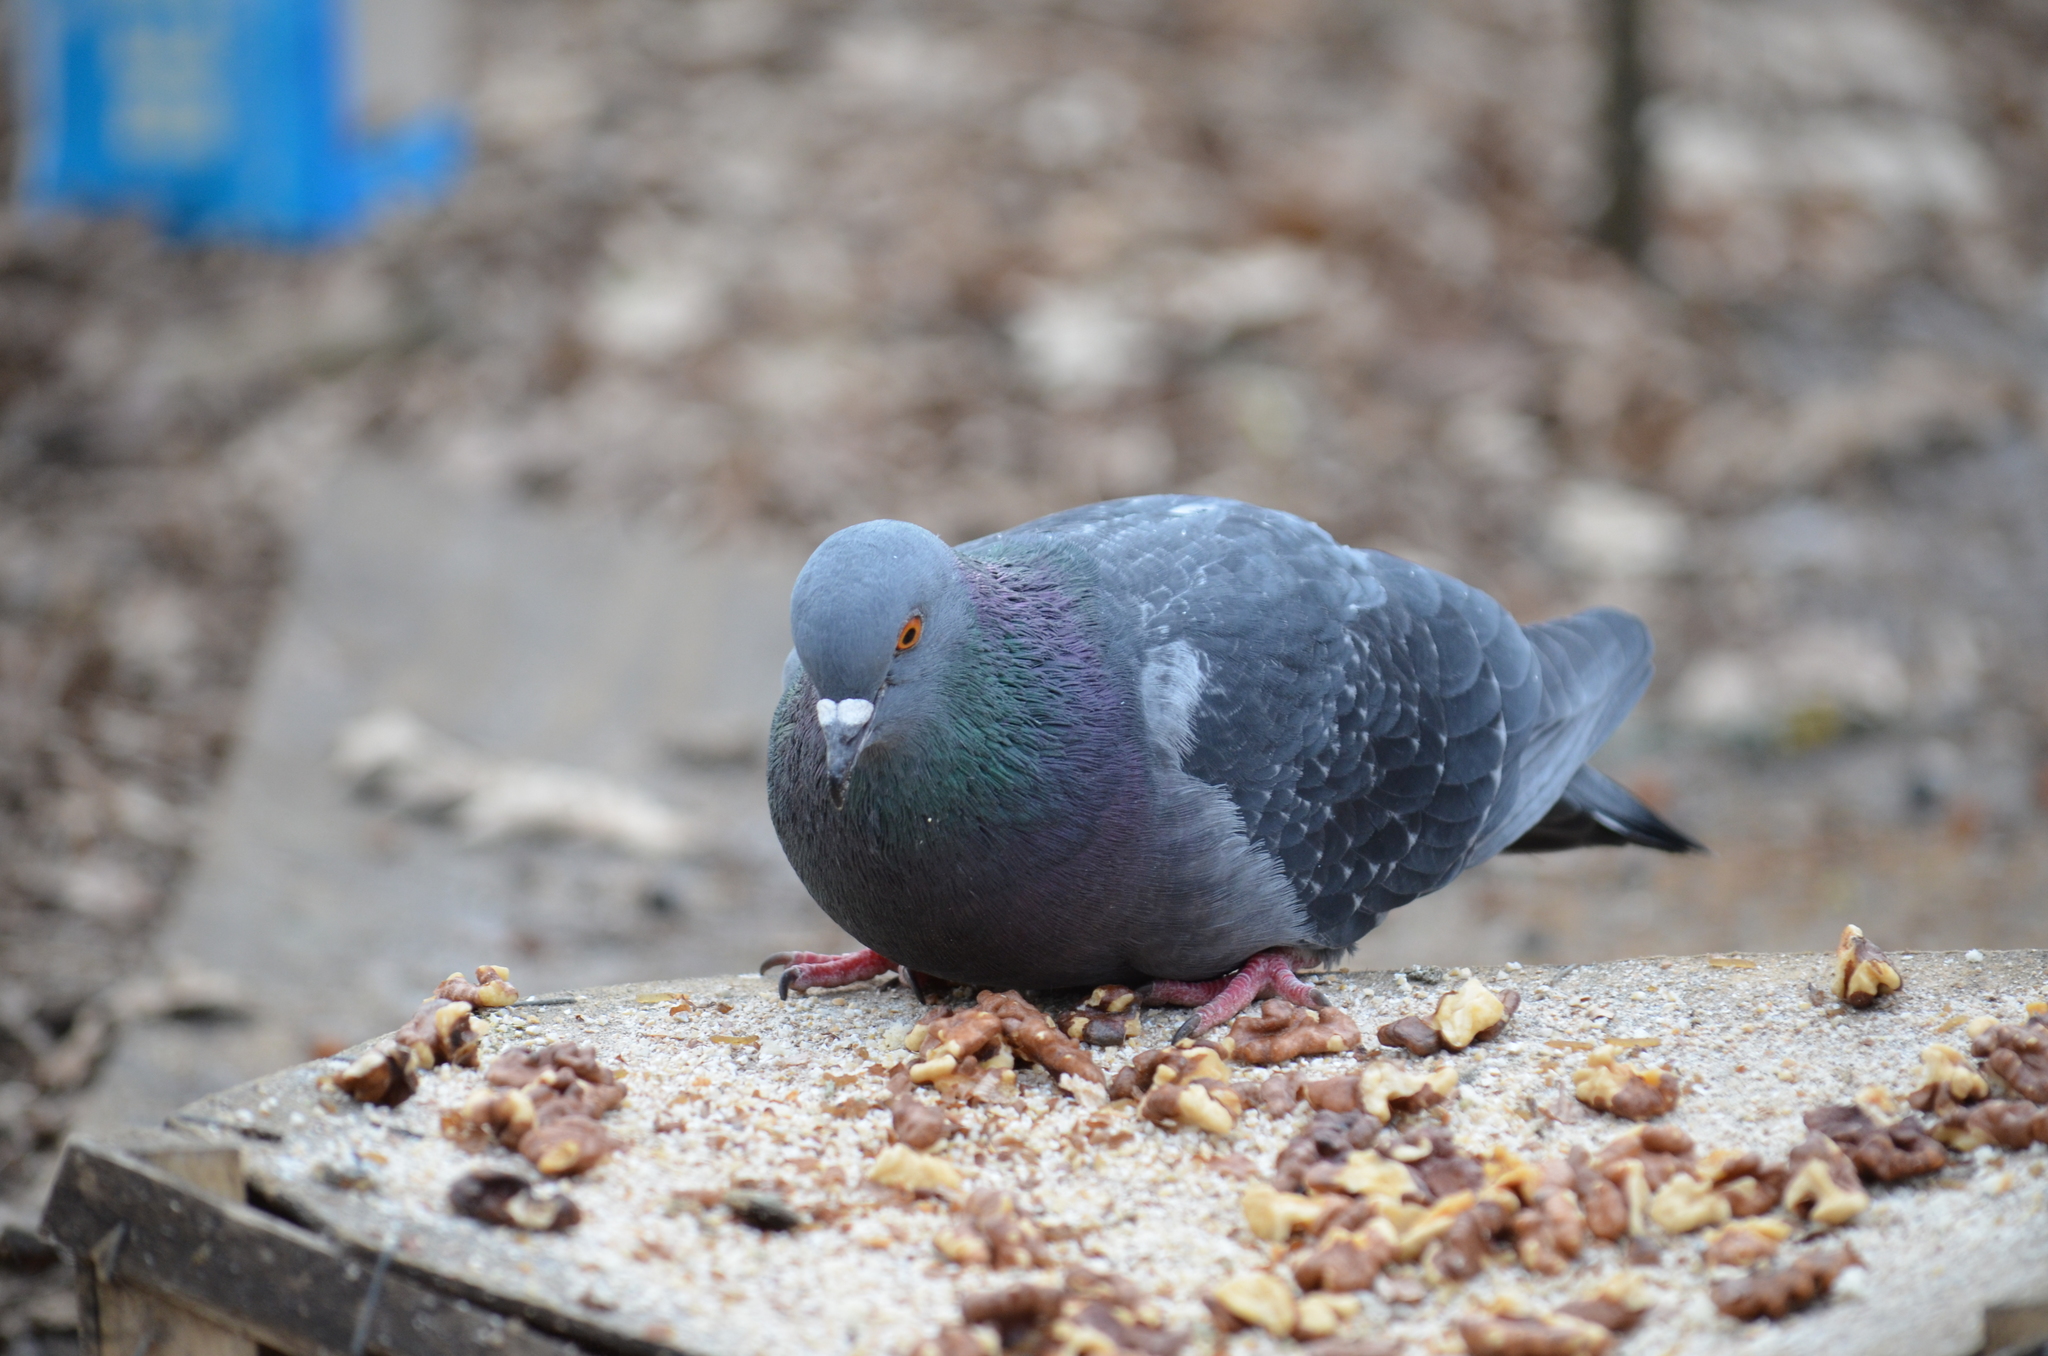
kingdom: Animalia
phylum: Chordata
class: Aves
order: Columbiformes
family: Columbidae
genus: Columba
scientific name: Columba livia
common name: Rock pigeon
